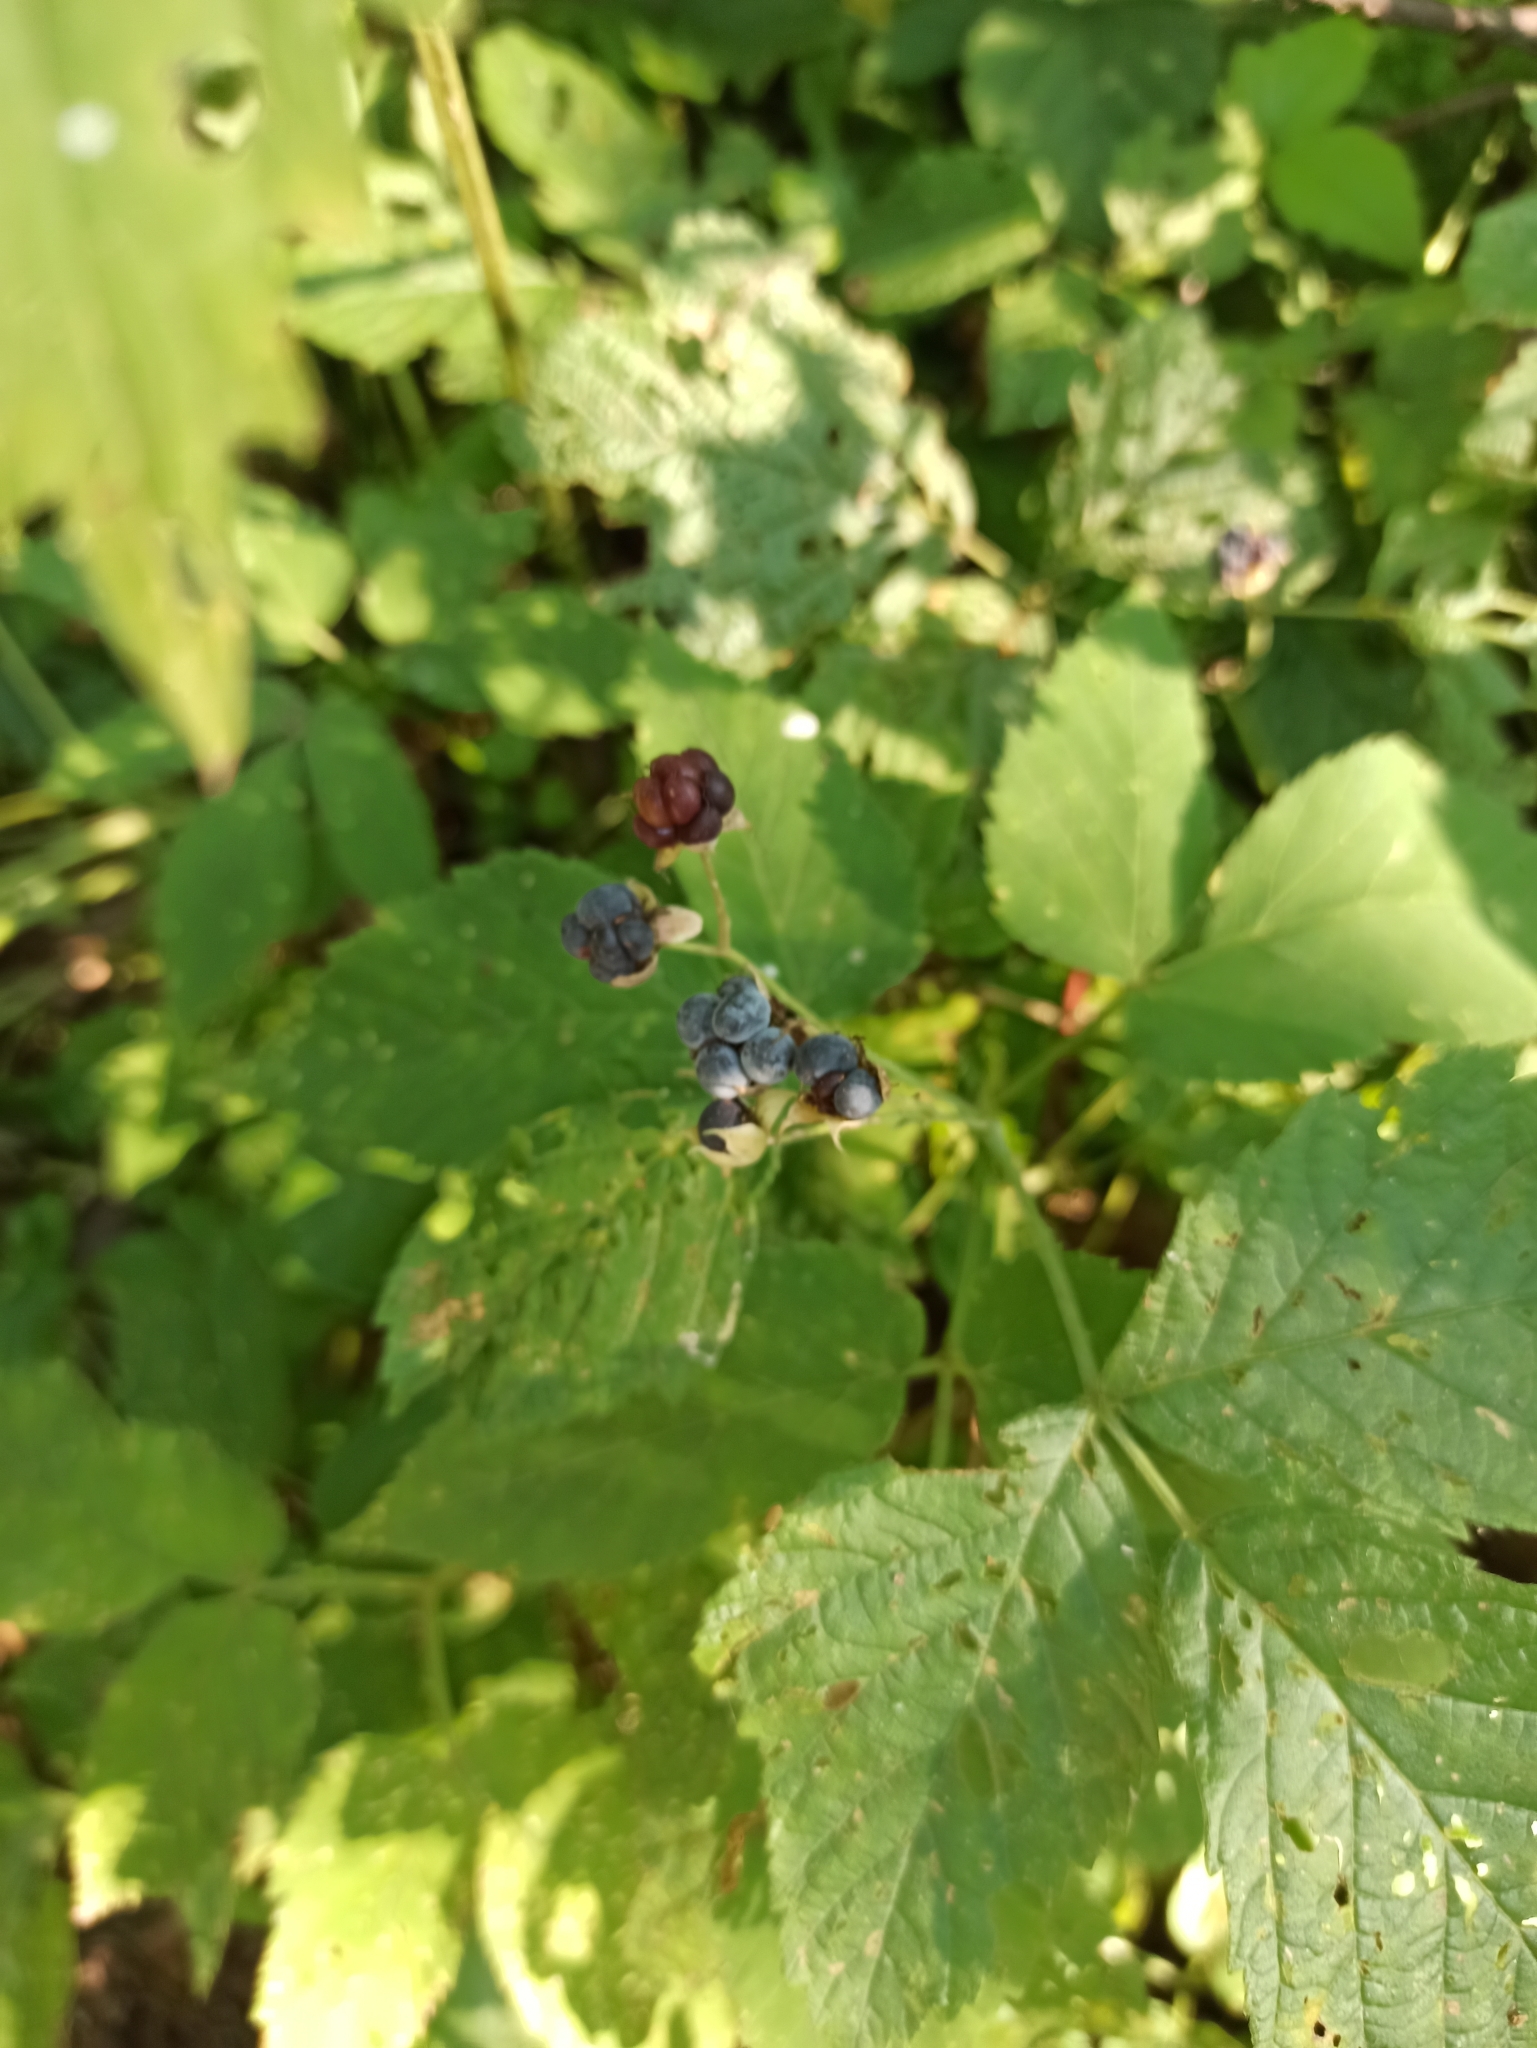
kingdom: Plantae
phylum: Tracheophyta
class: Magnoliopsida
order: Rosales
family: Rosaceae
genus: Rubus
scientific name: Rubus caesius
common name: Dewberry
